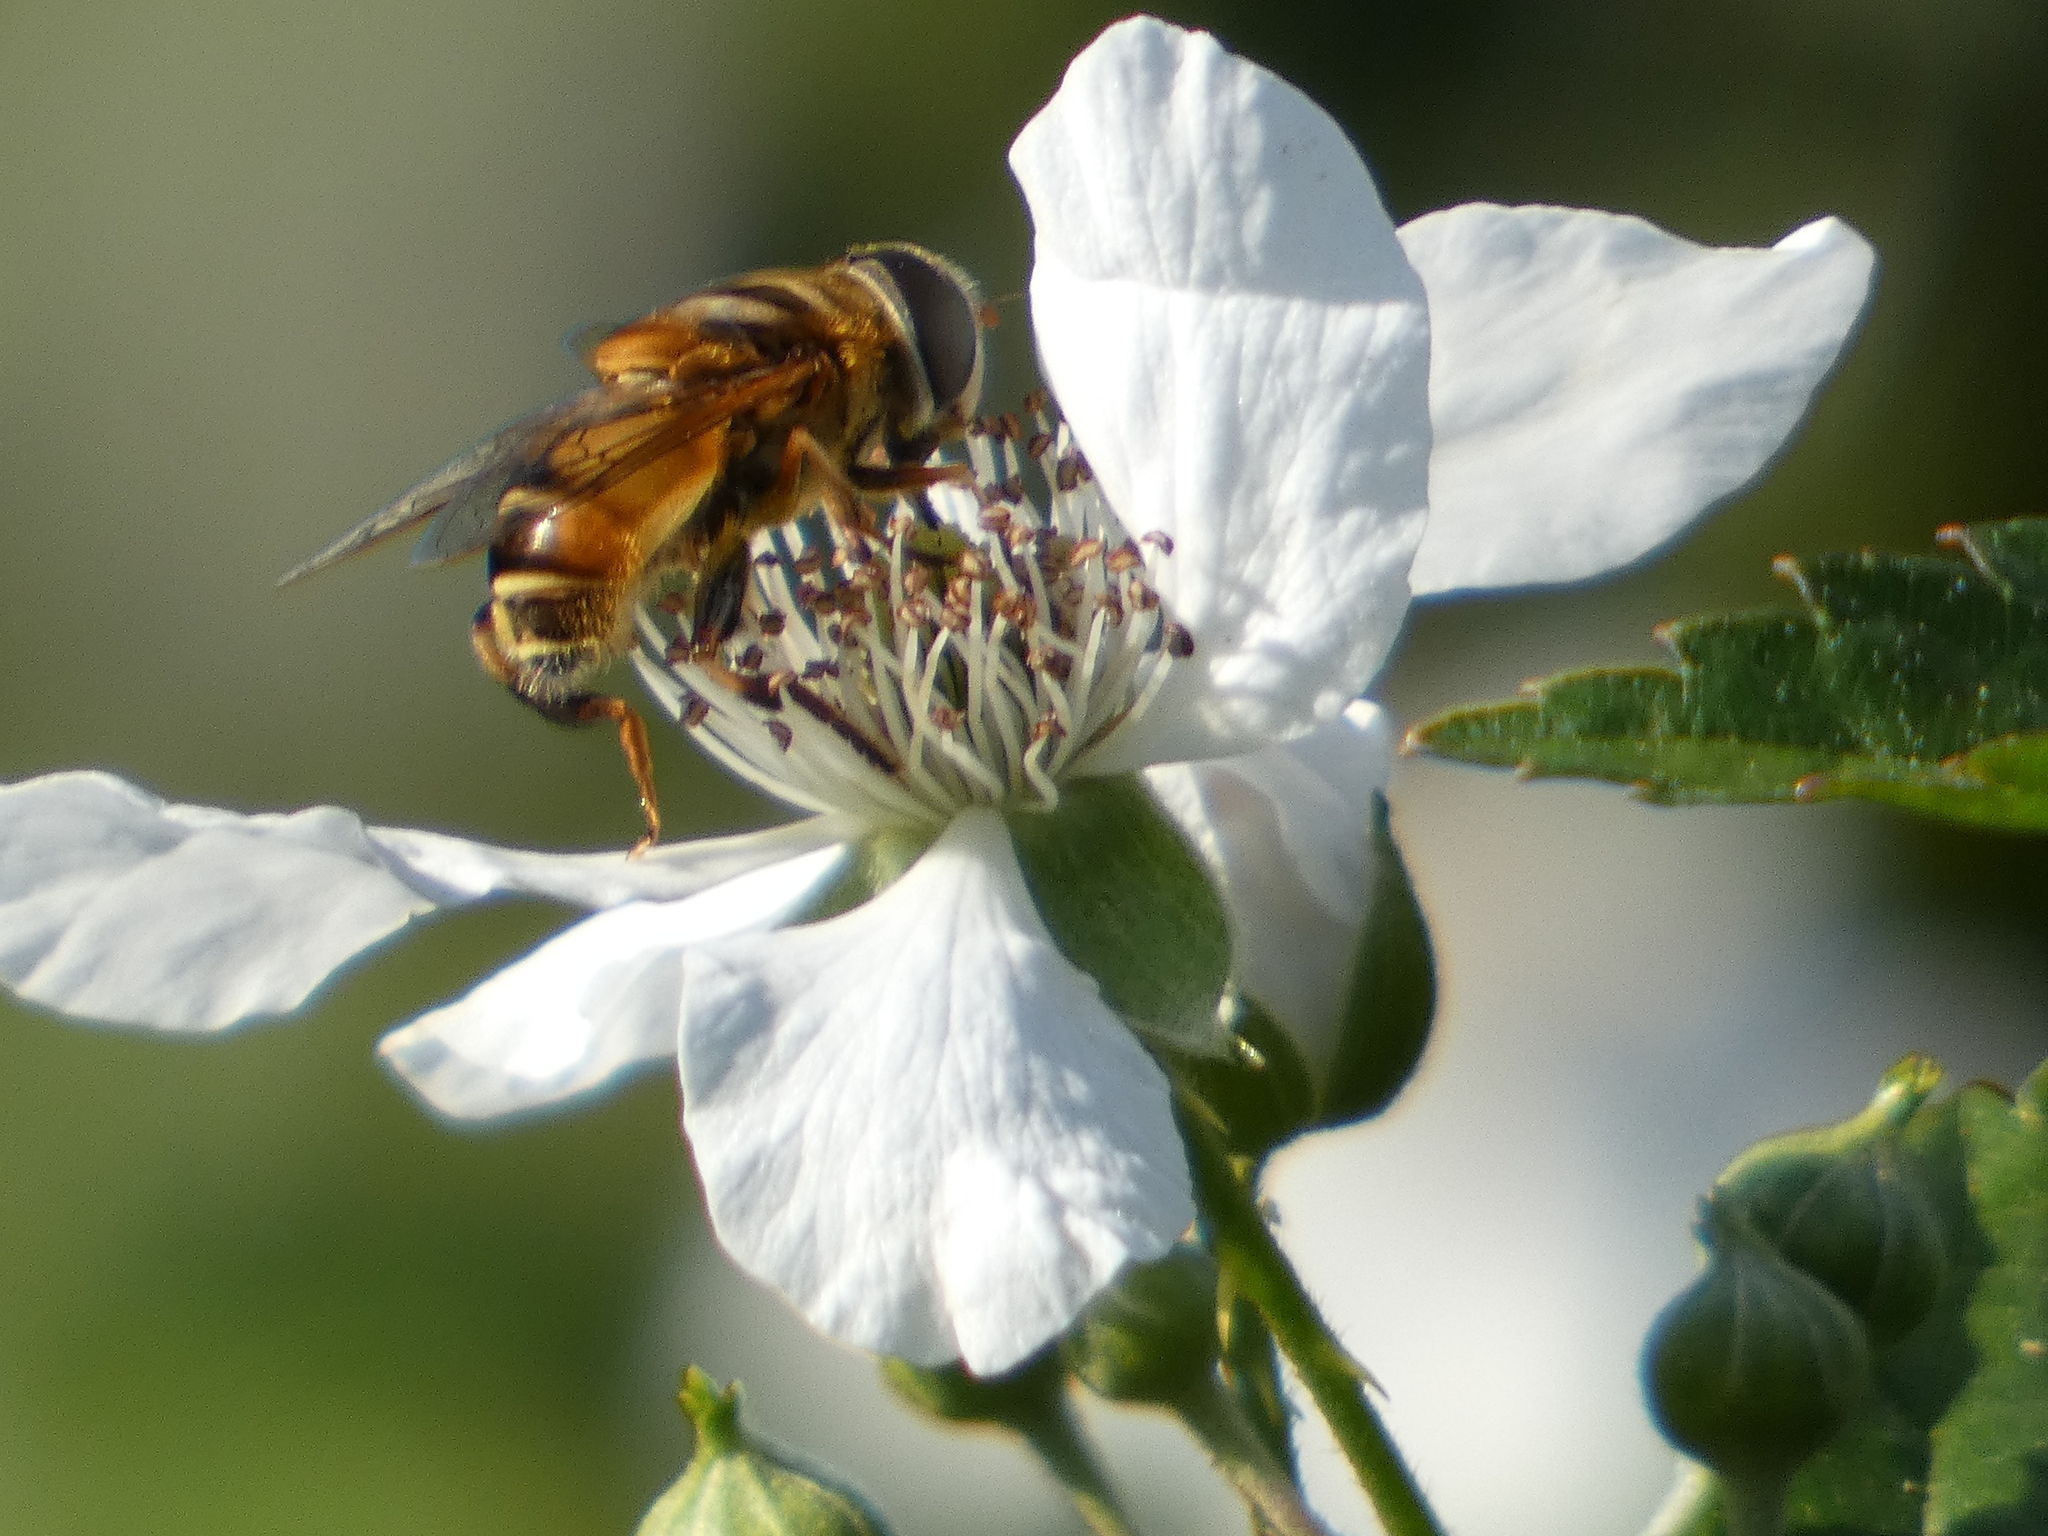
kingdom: Animalia
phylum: Arthropoda
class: Insecta
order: Diptera
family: Syrphidae
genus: Palpada
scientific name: Palpada vinetorum
